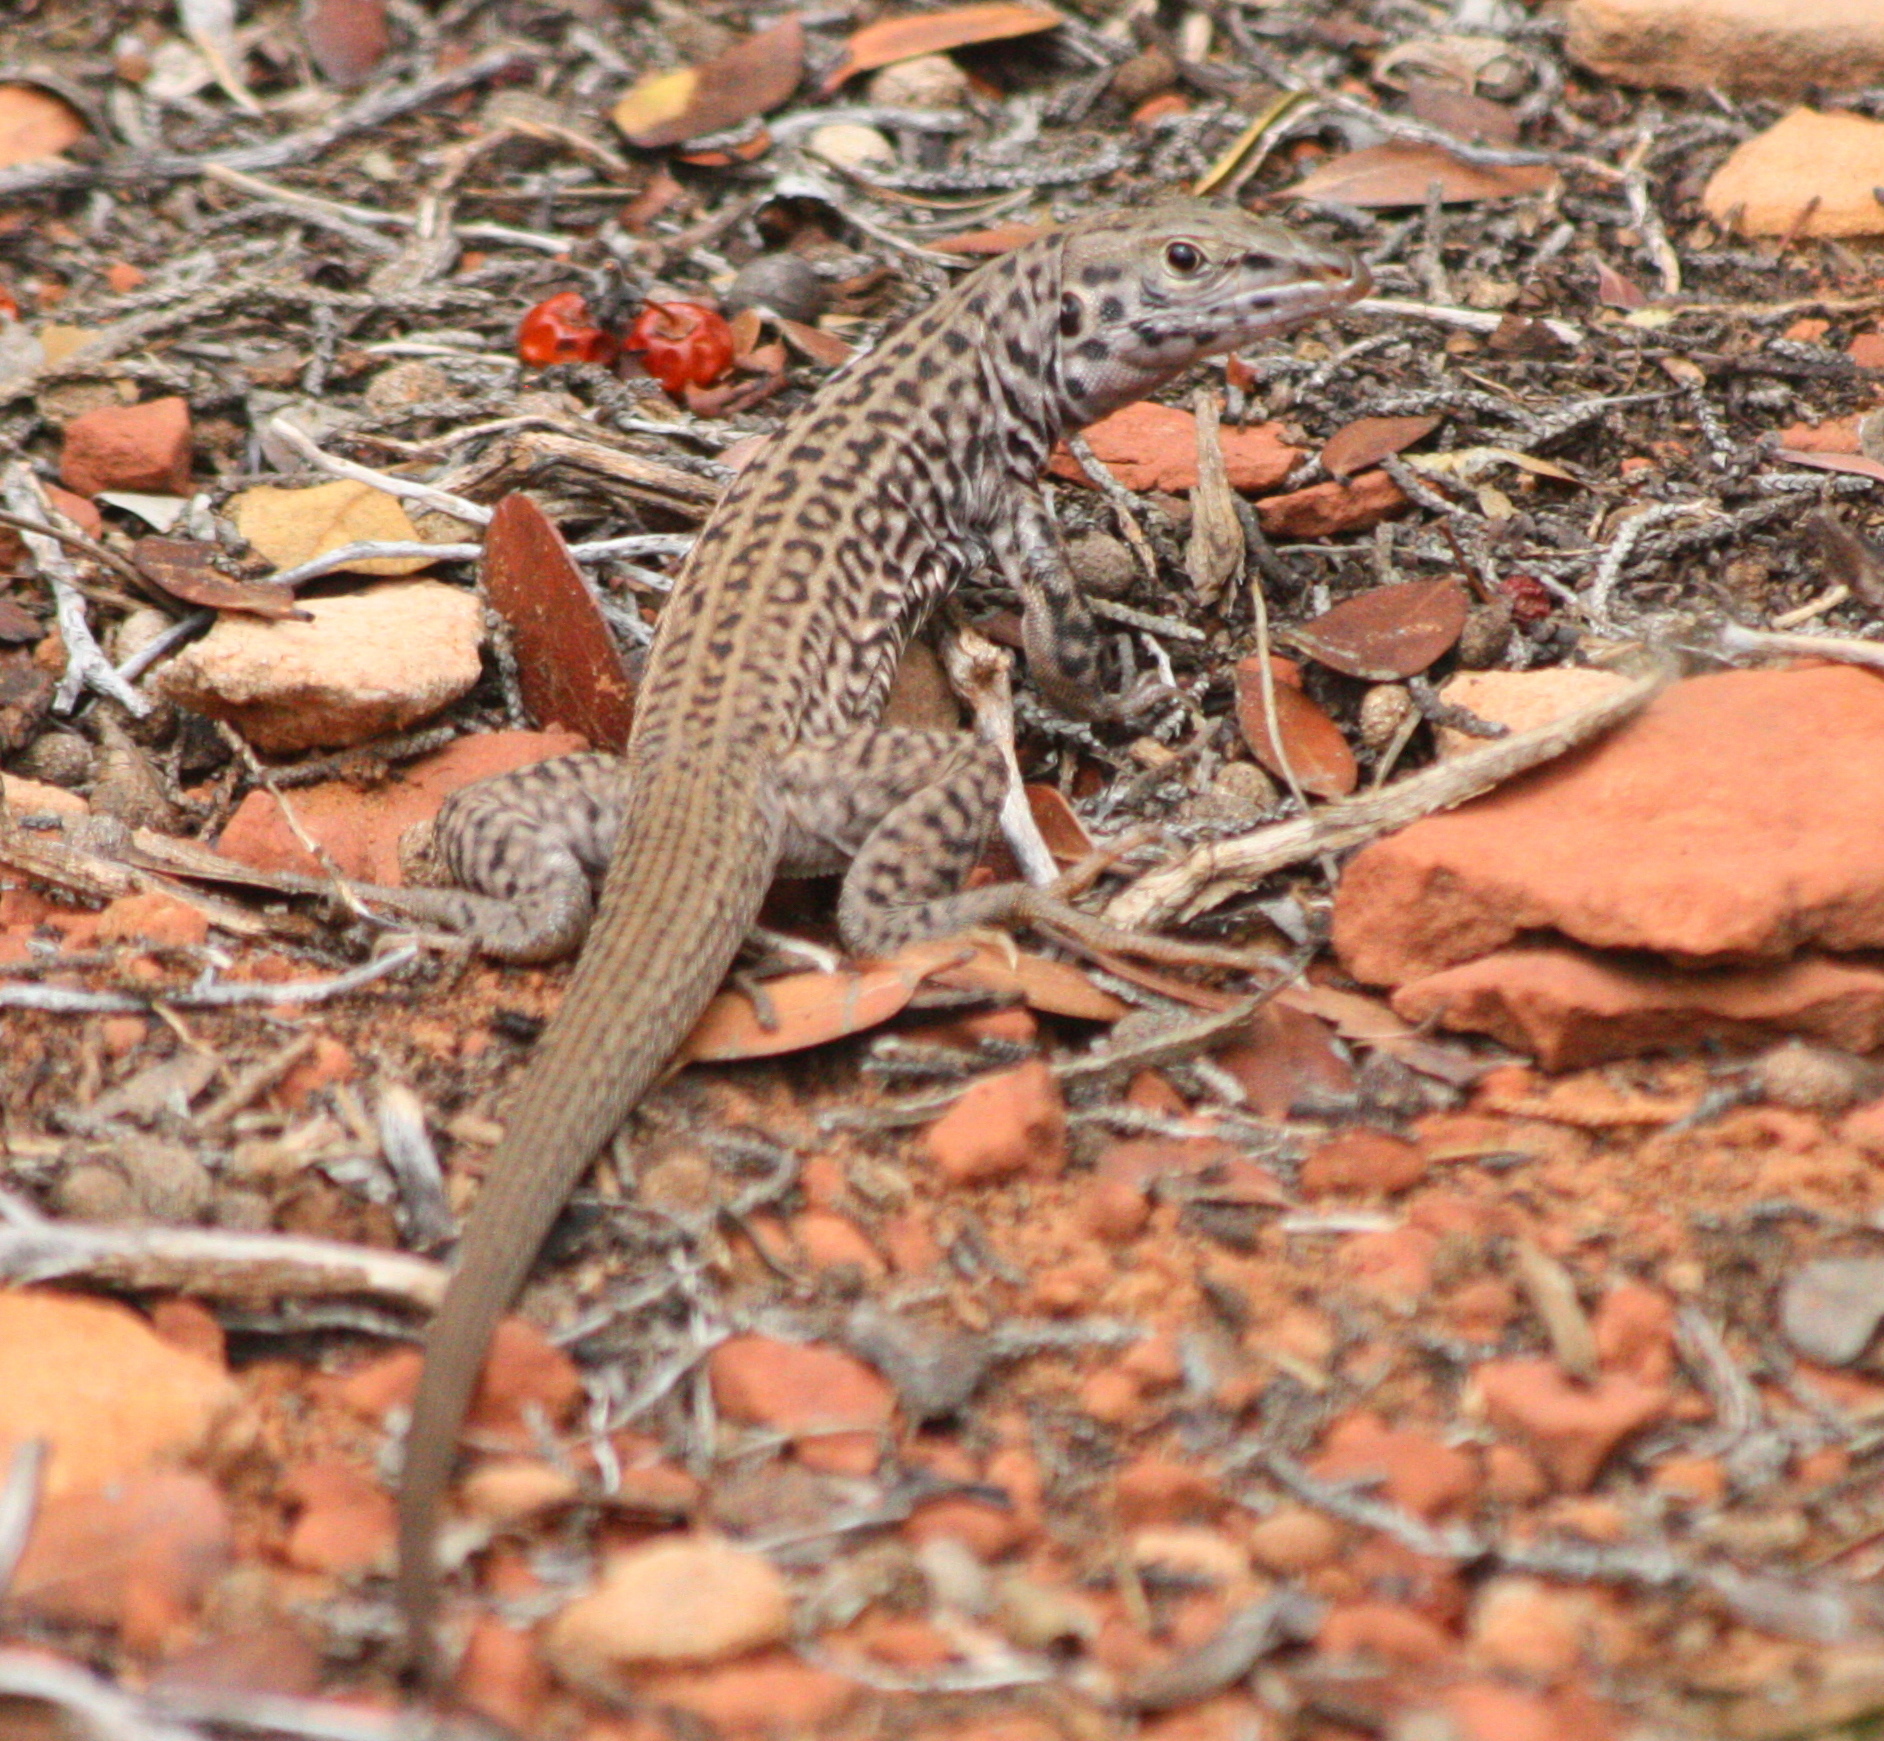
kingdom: Animalia
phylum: Chordata
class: Squamata
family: Teiidae
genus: Aspidoscelis
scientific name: Aspidoscelis tigris
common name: Tiger whiptail
